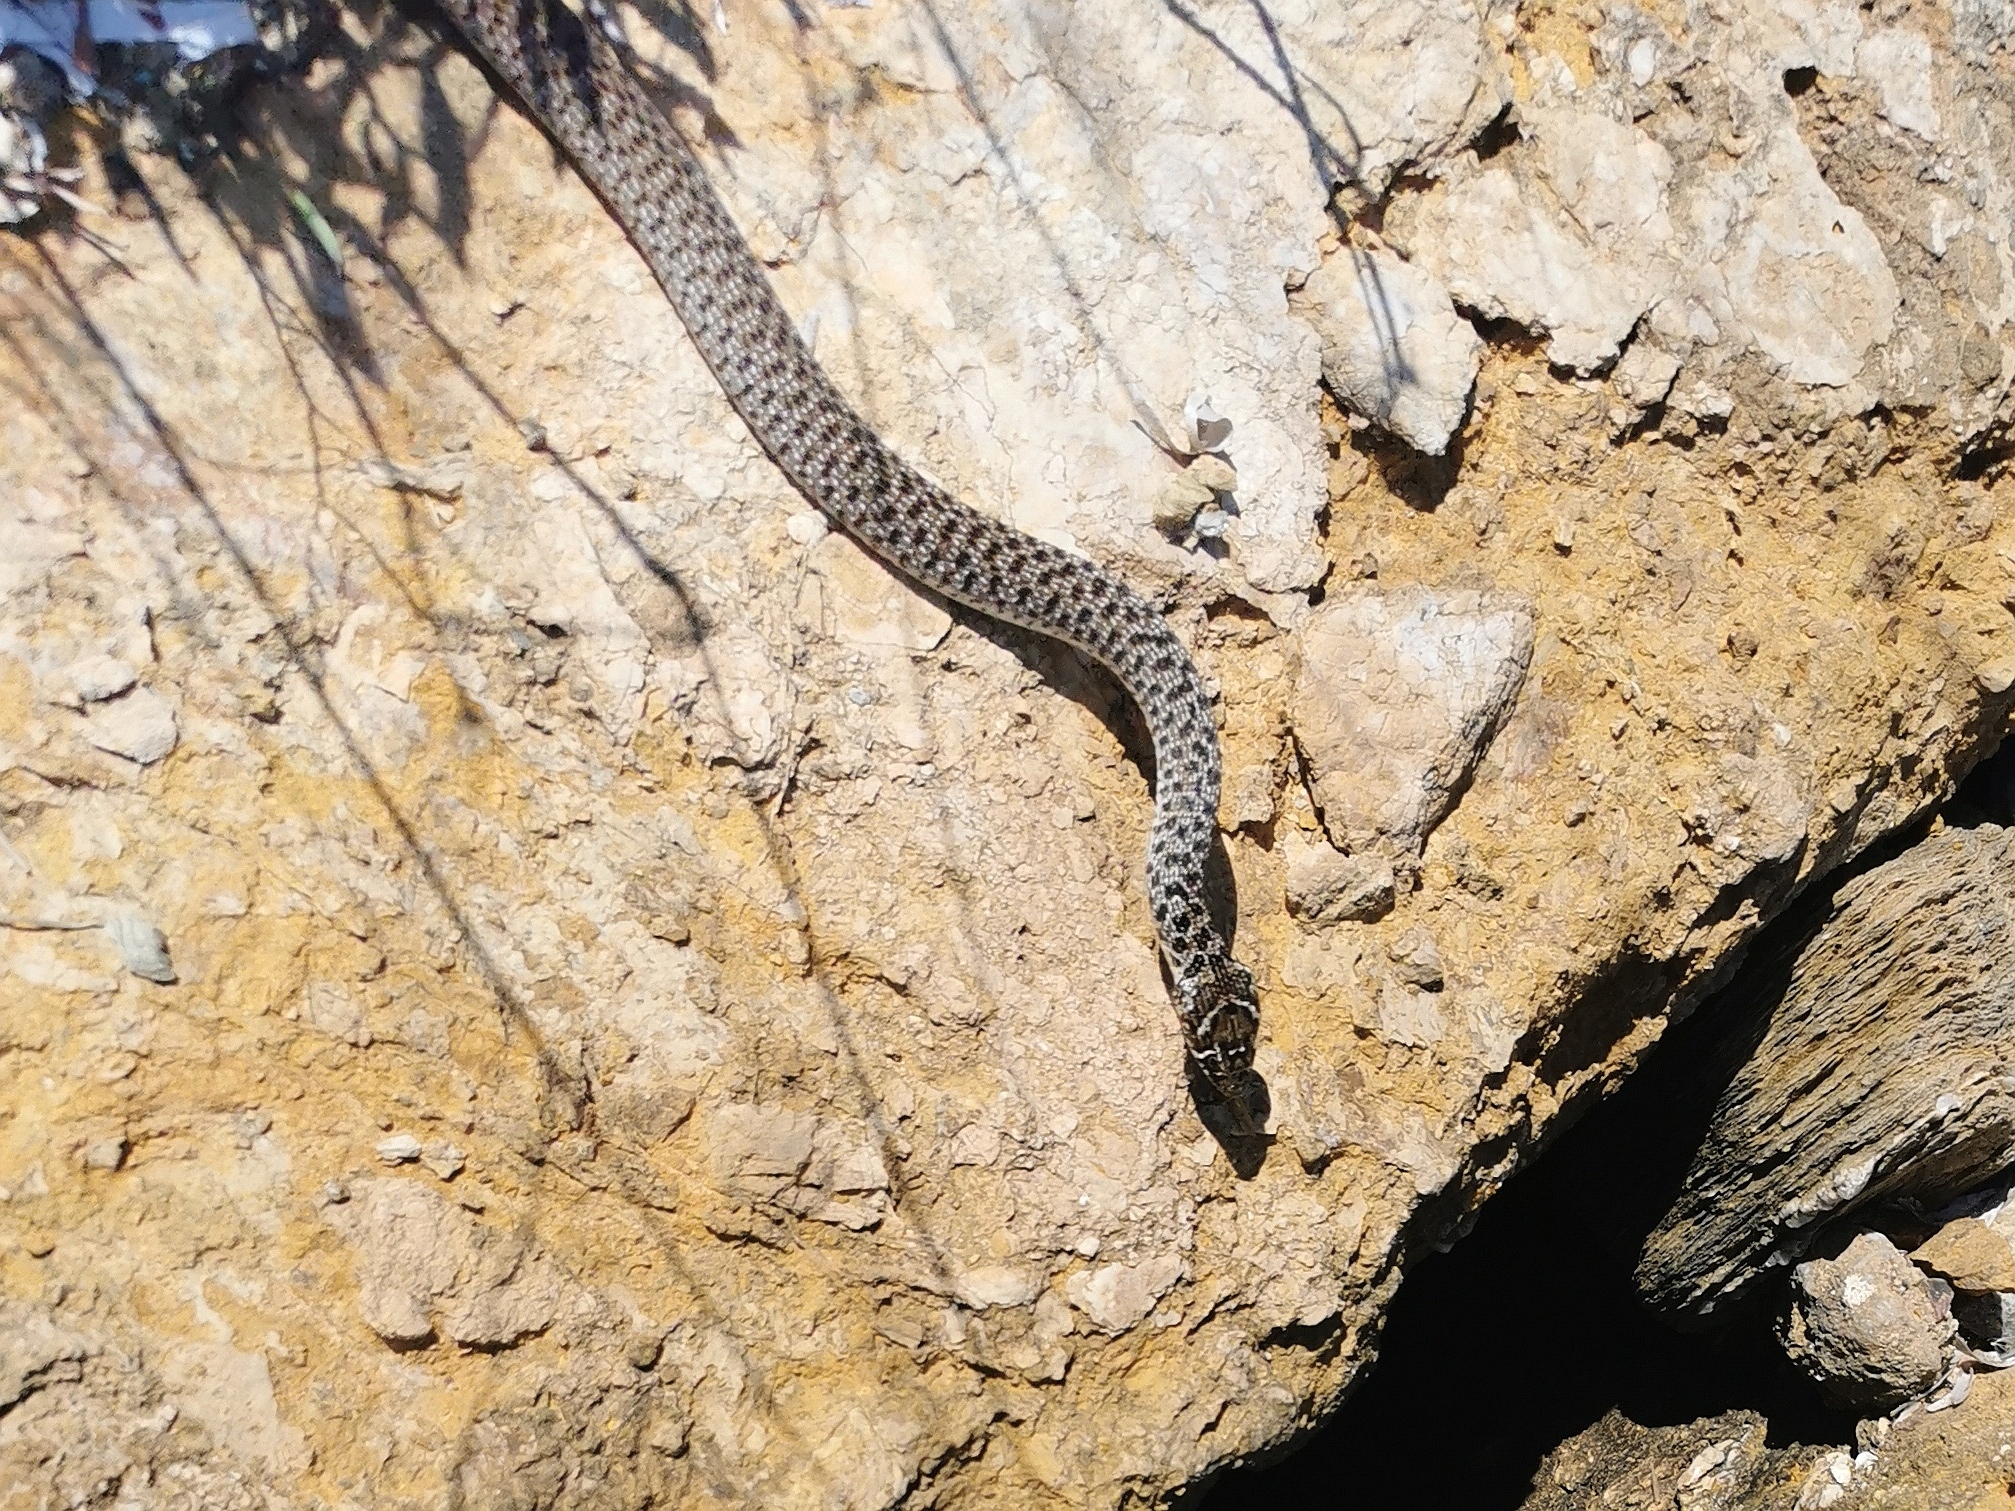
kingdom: Animalia
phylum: Chordata
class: Squamata
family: Colubridae
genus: Hierophis
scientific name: Hierophis gemonensis
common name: Balkan whip snake
